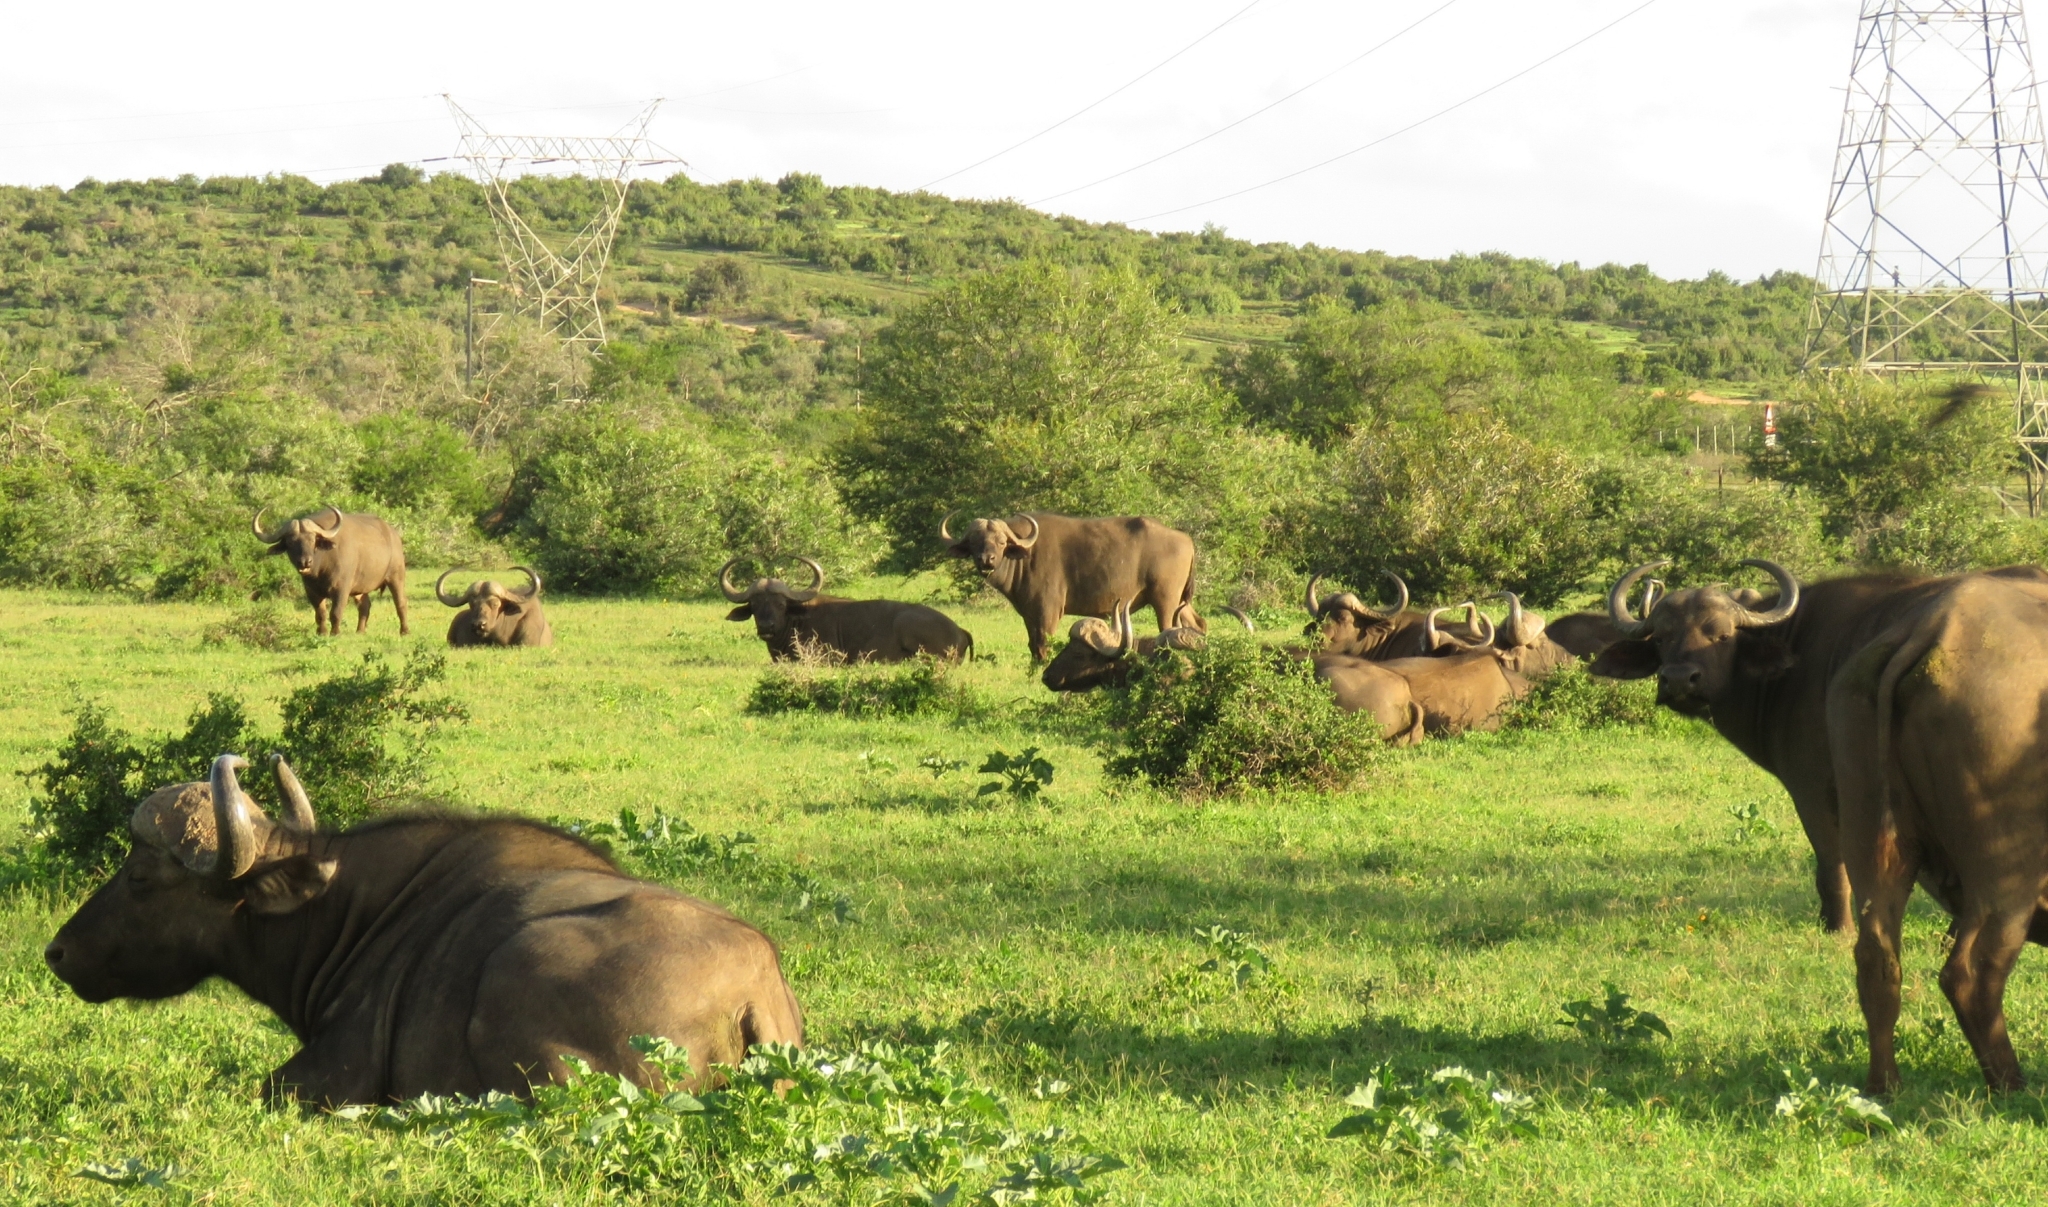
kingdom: Animalia
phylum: Chordata
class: Mammalia
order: Artiodactyla
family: Bovidae
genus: Syncerus
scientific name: Syncerus caffer
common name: African buffalo
